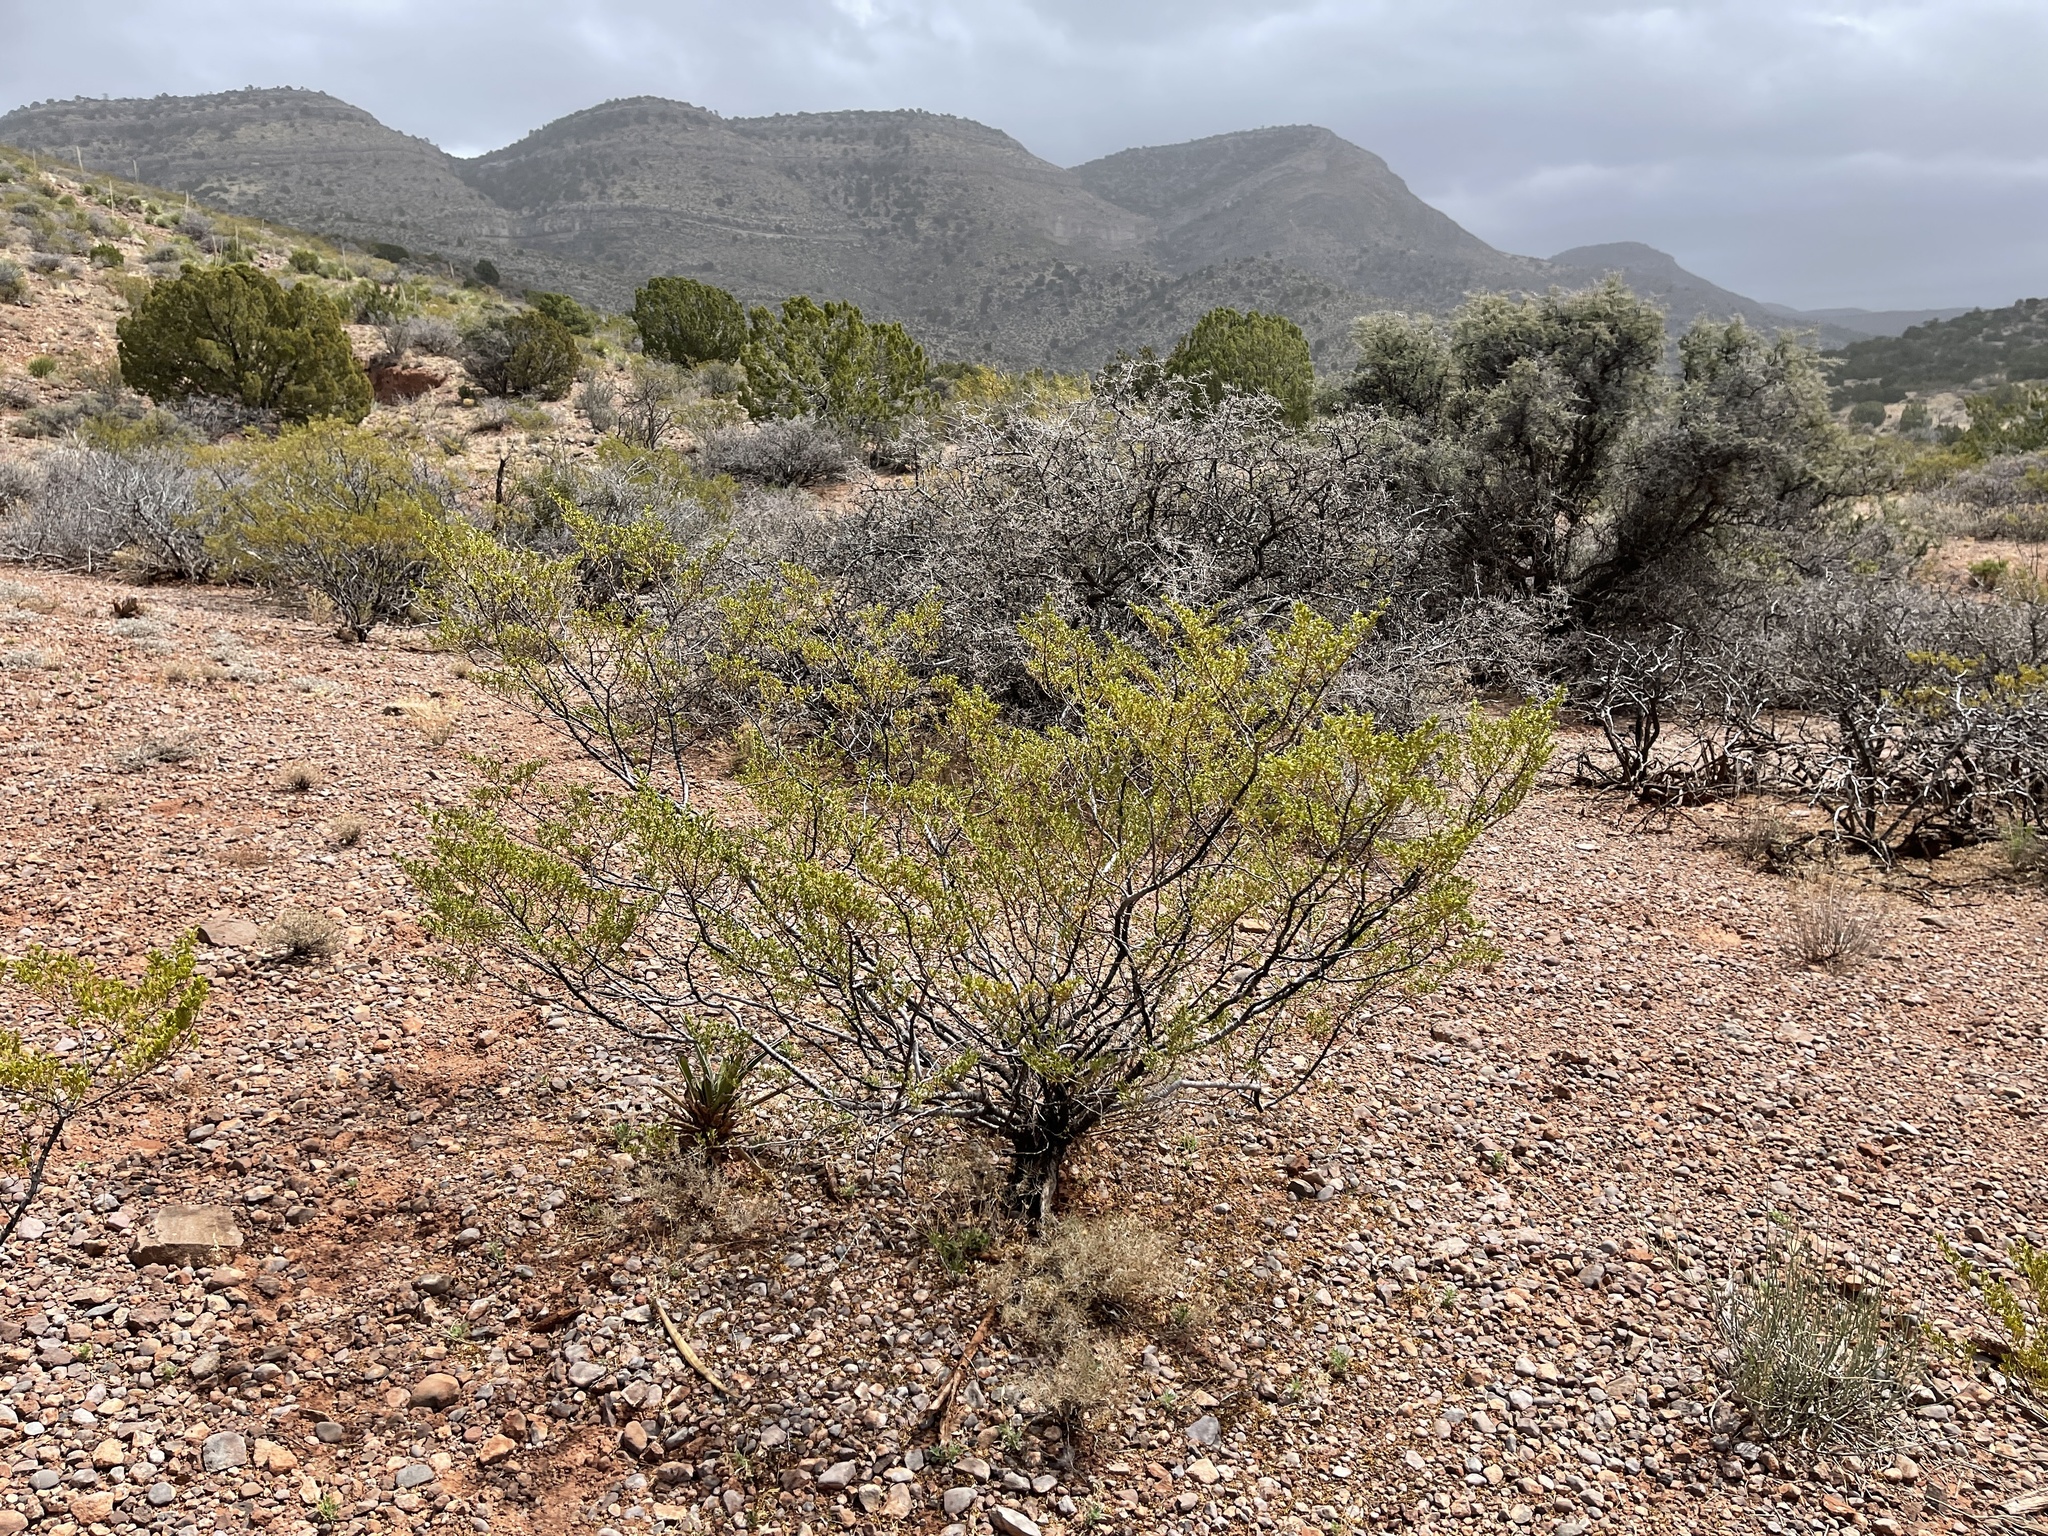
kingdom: Plantae
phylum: Tracheophyta
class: Magnoliopsida
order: Zygophyllales
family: Zygophyllaceae
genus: Larrea
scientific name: Larrea tridentata
